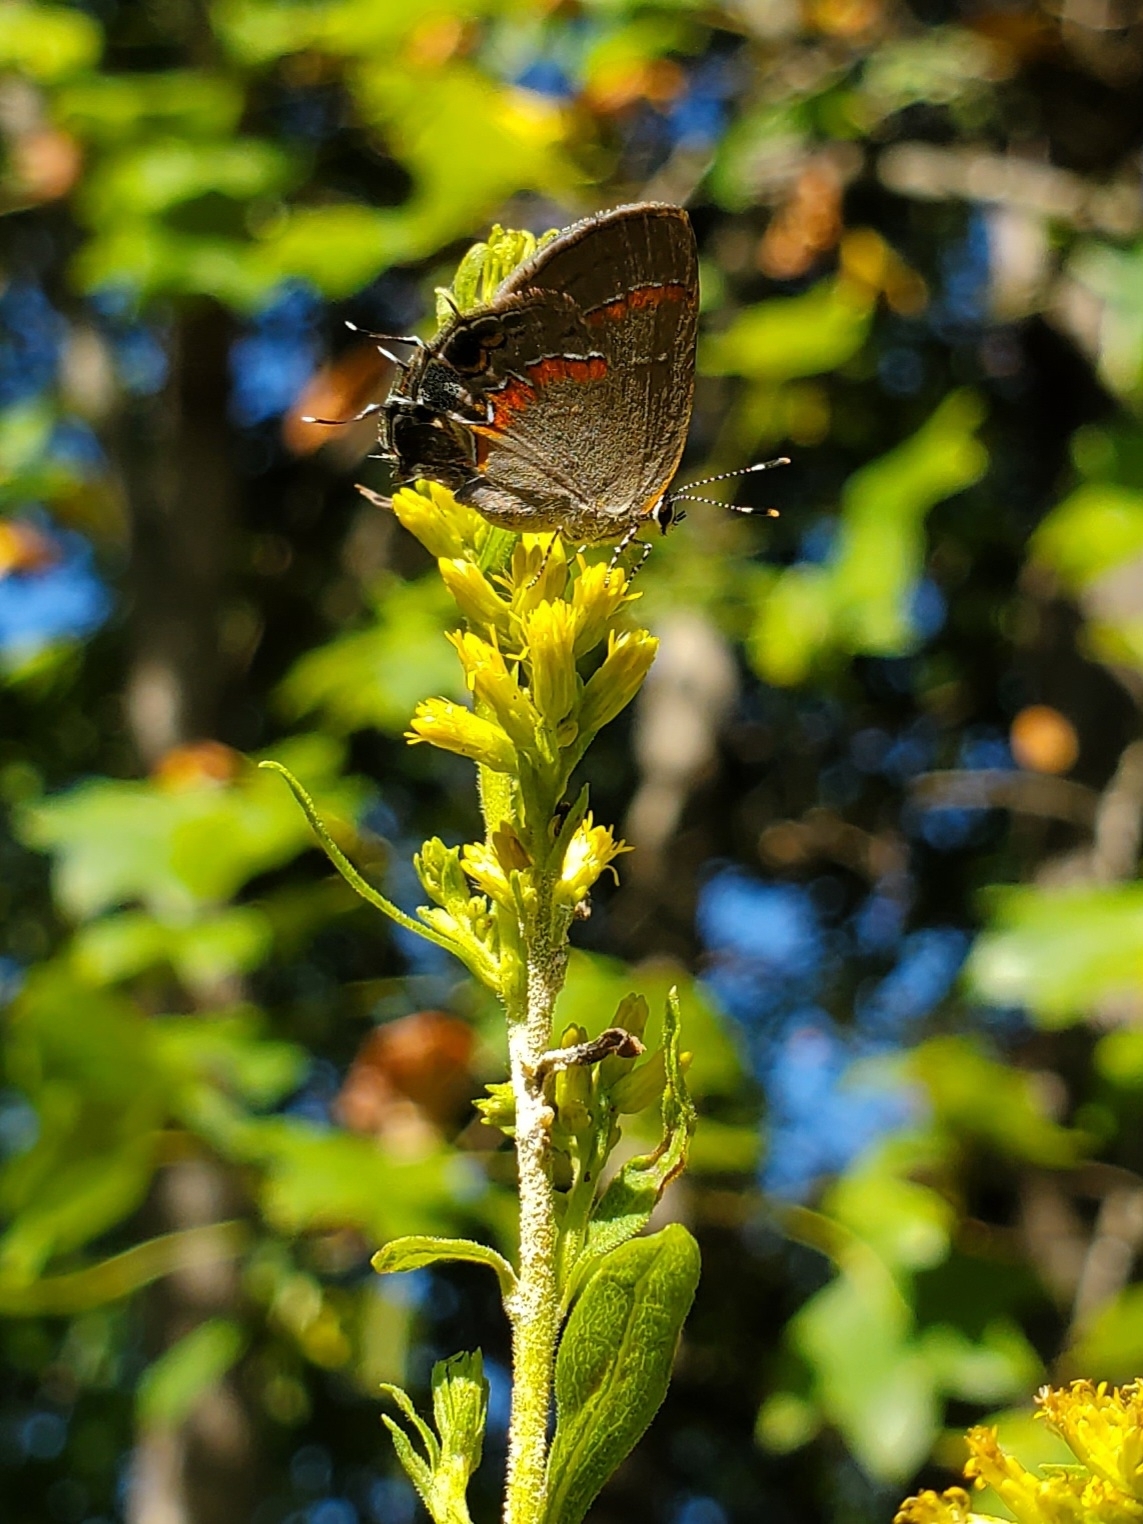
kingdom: Animalia
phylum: Arthropoda
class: Insecta
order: Lepidoptera
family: Lycaenidae
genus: Calycopis
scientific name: Calycopis cecrops
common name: Red-banded hairstreak
